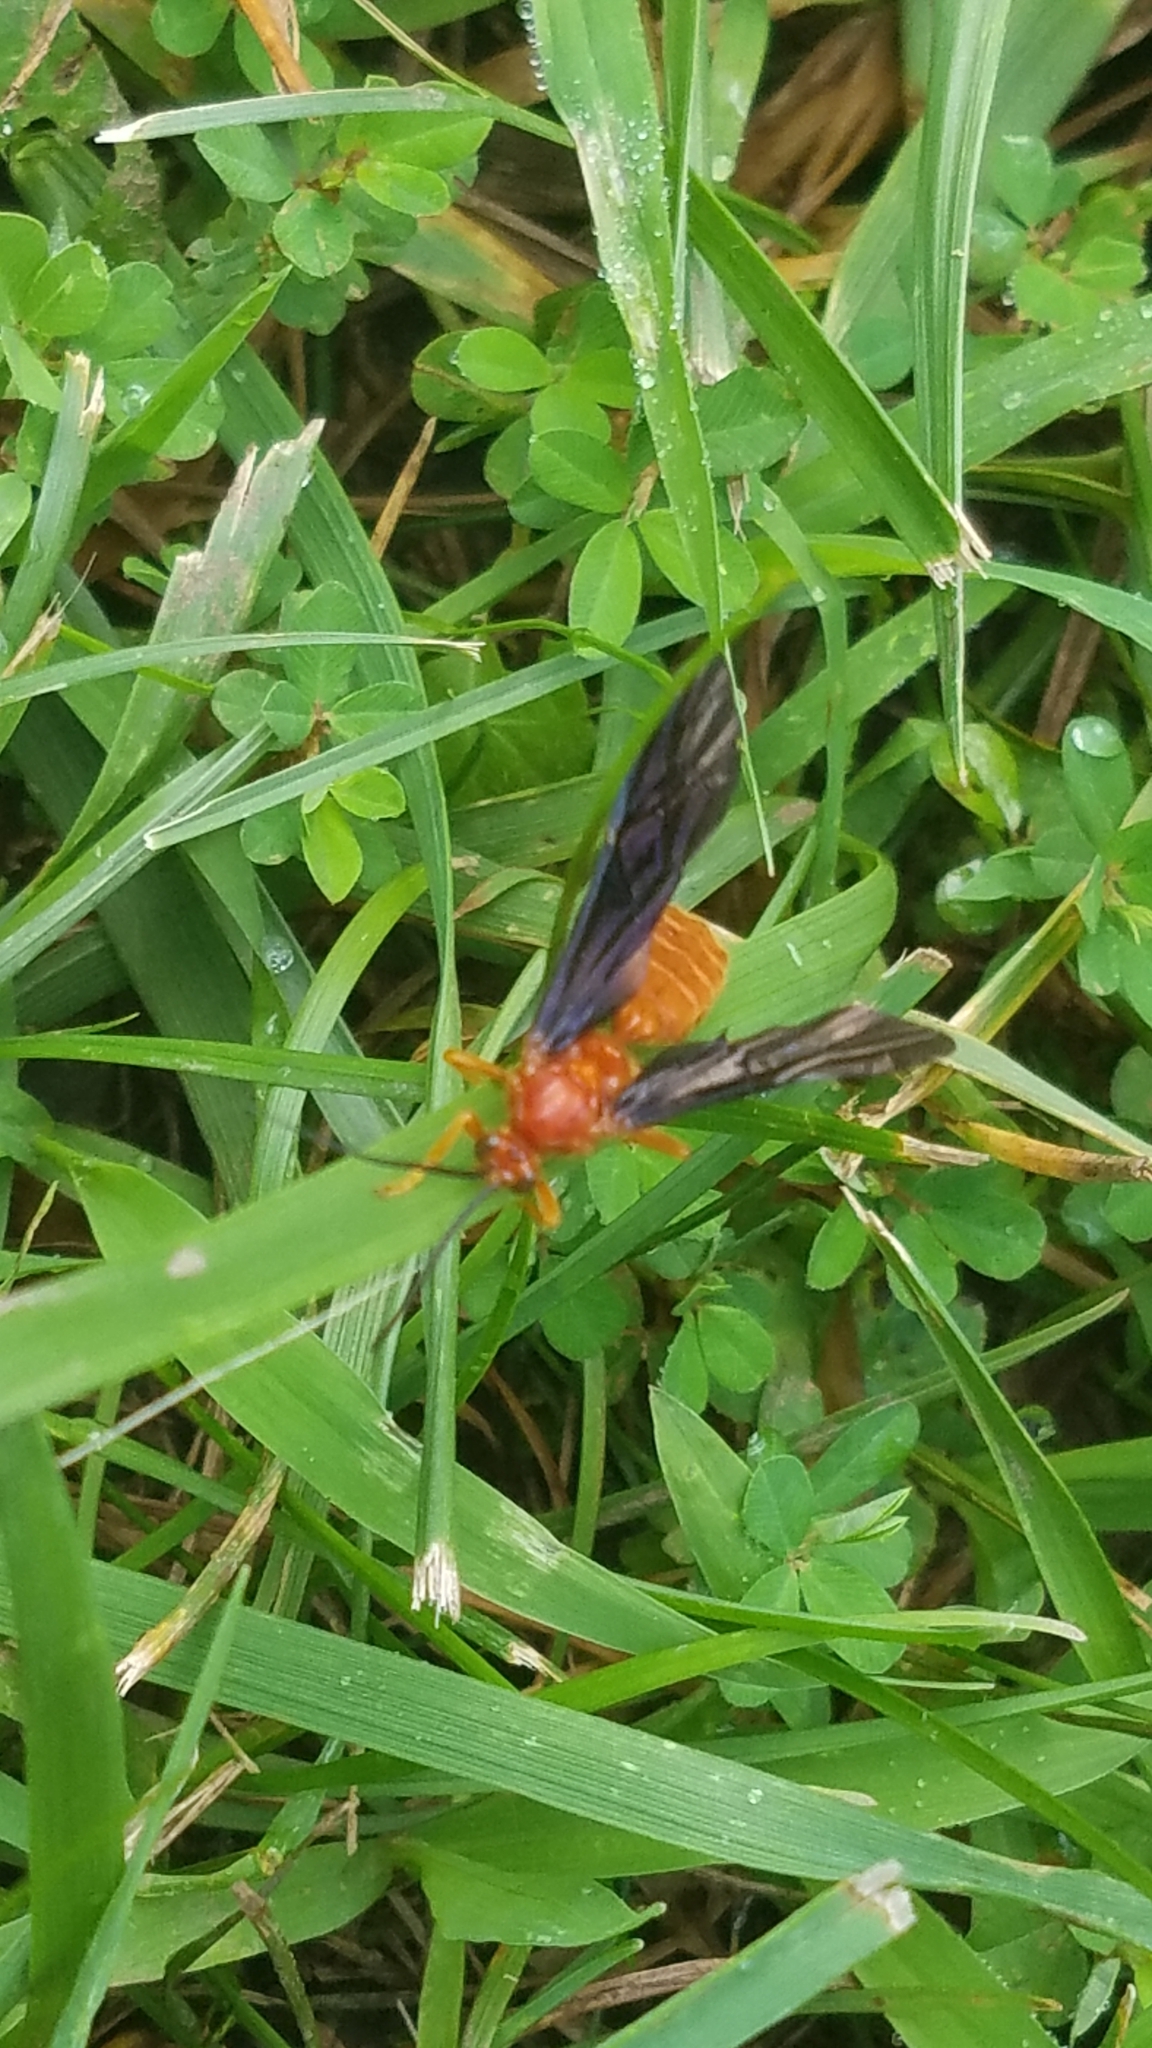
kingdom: Animalia
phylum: Arthropoda
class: Insecta
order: Hymenoptera
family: Ichneumonidae
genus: Trogus
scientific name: Trogus pennator
